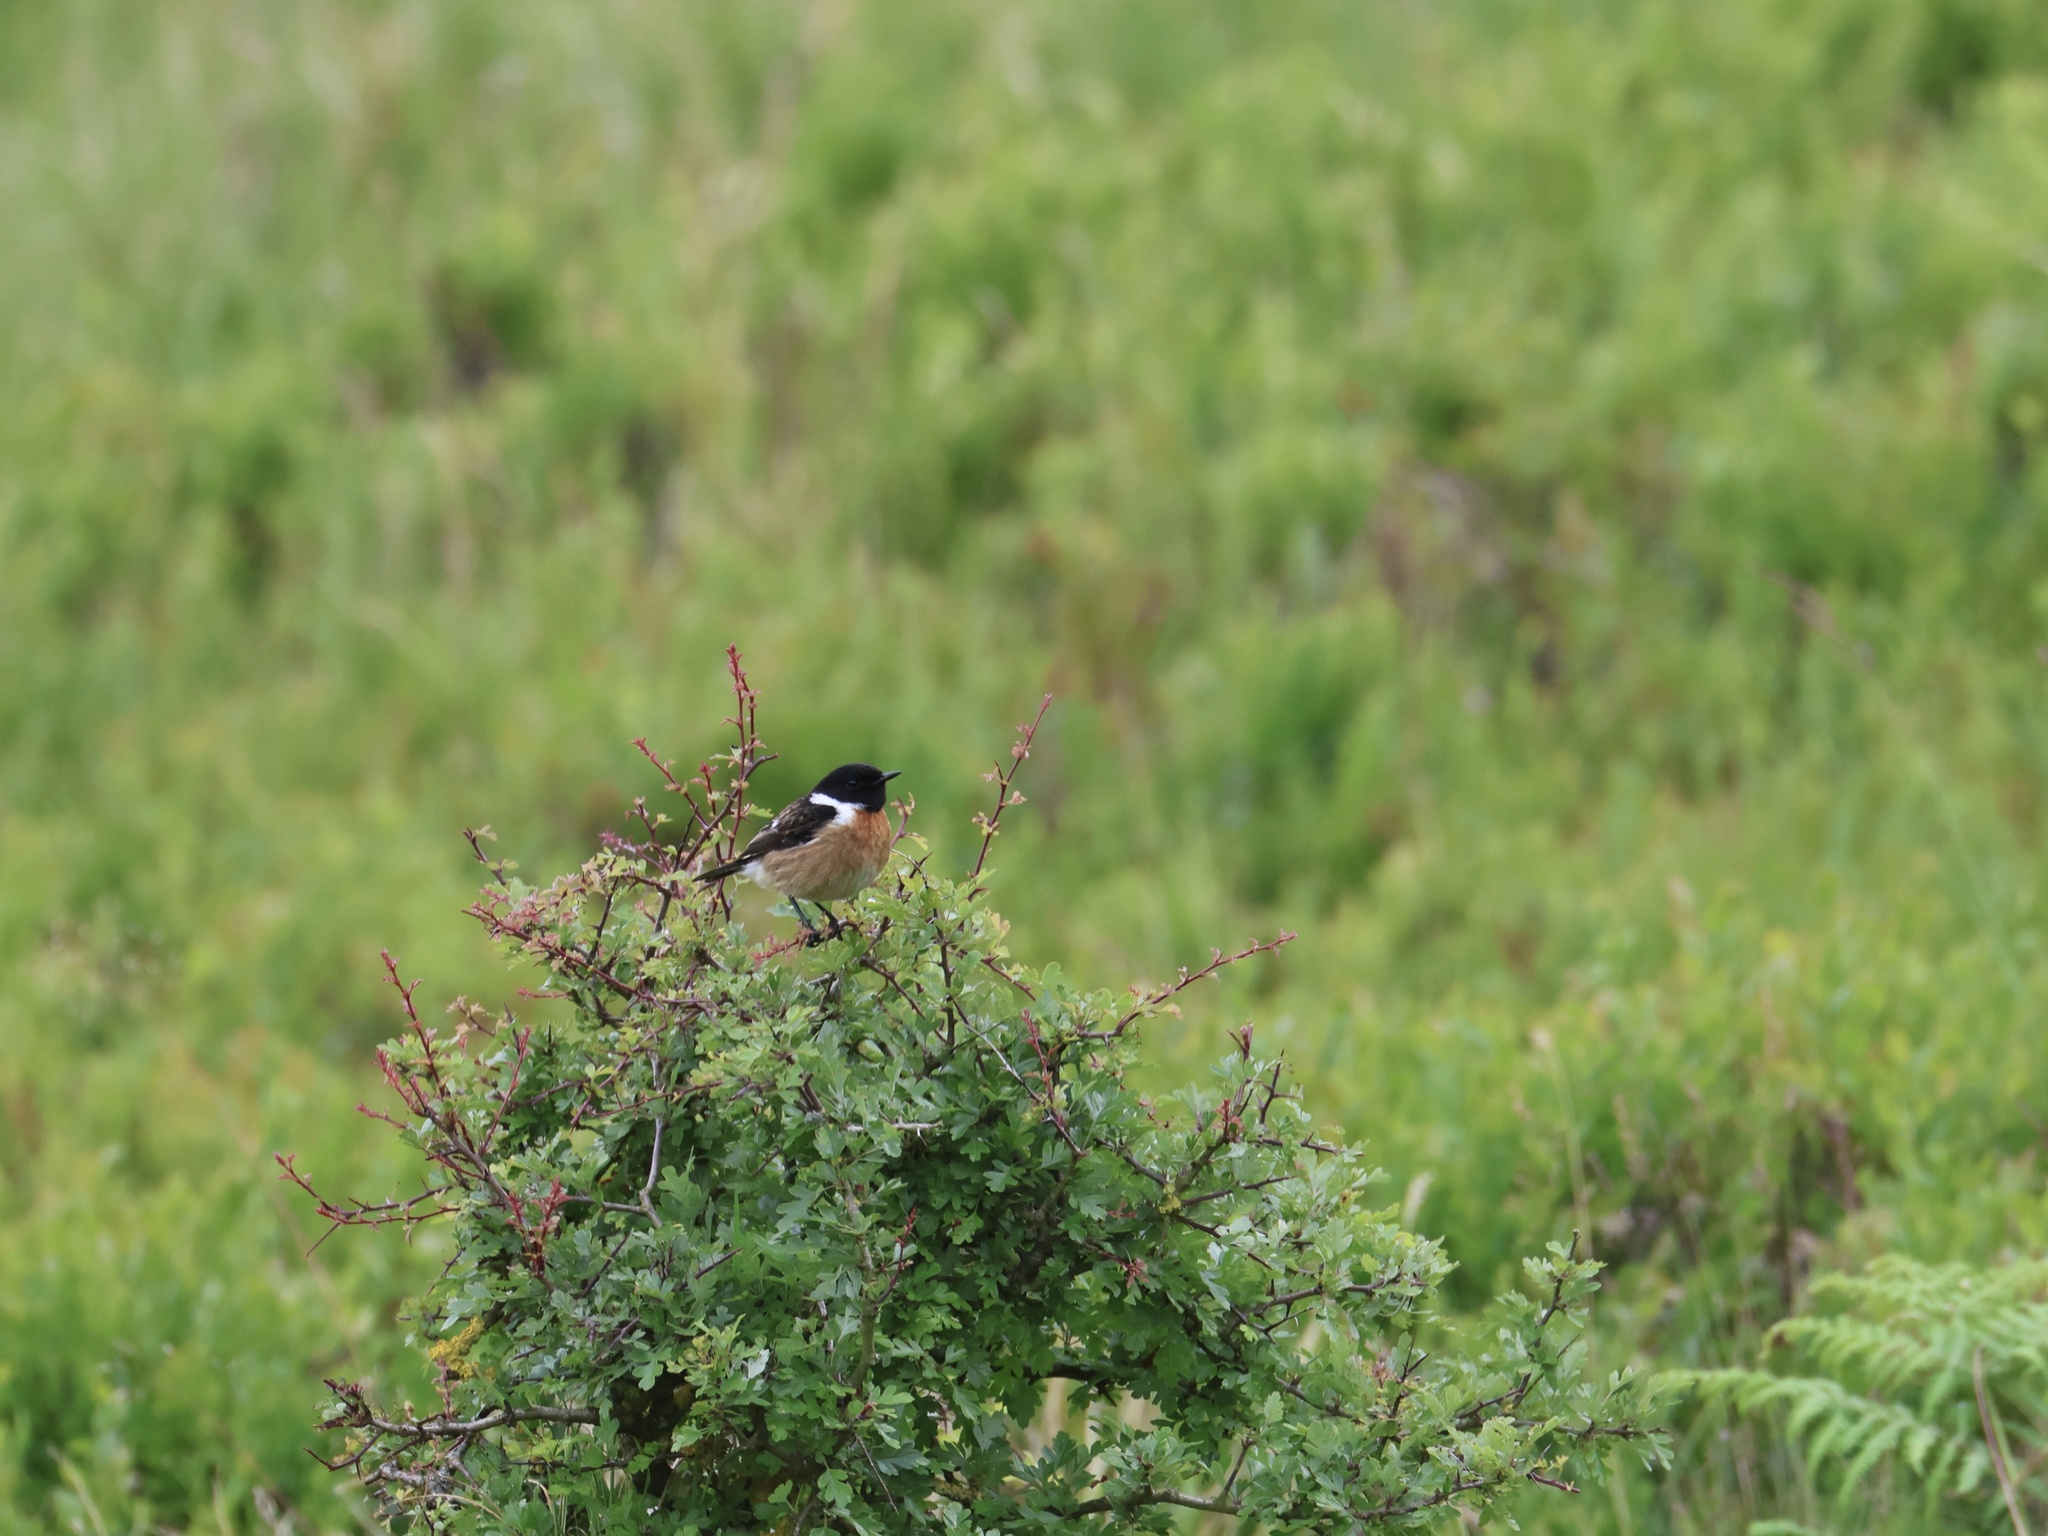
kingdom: Animalia
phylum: Chordata
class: Aves
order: Passeriformes
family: Muscicapidae
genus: Saxicola
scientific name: Saxicola rubicola
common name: European stonechat
